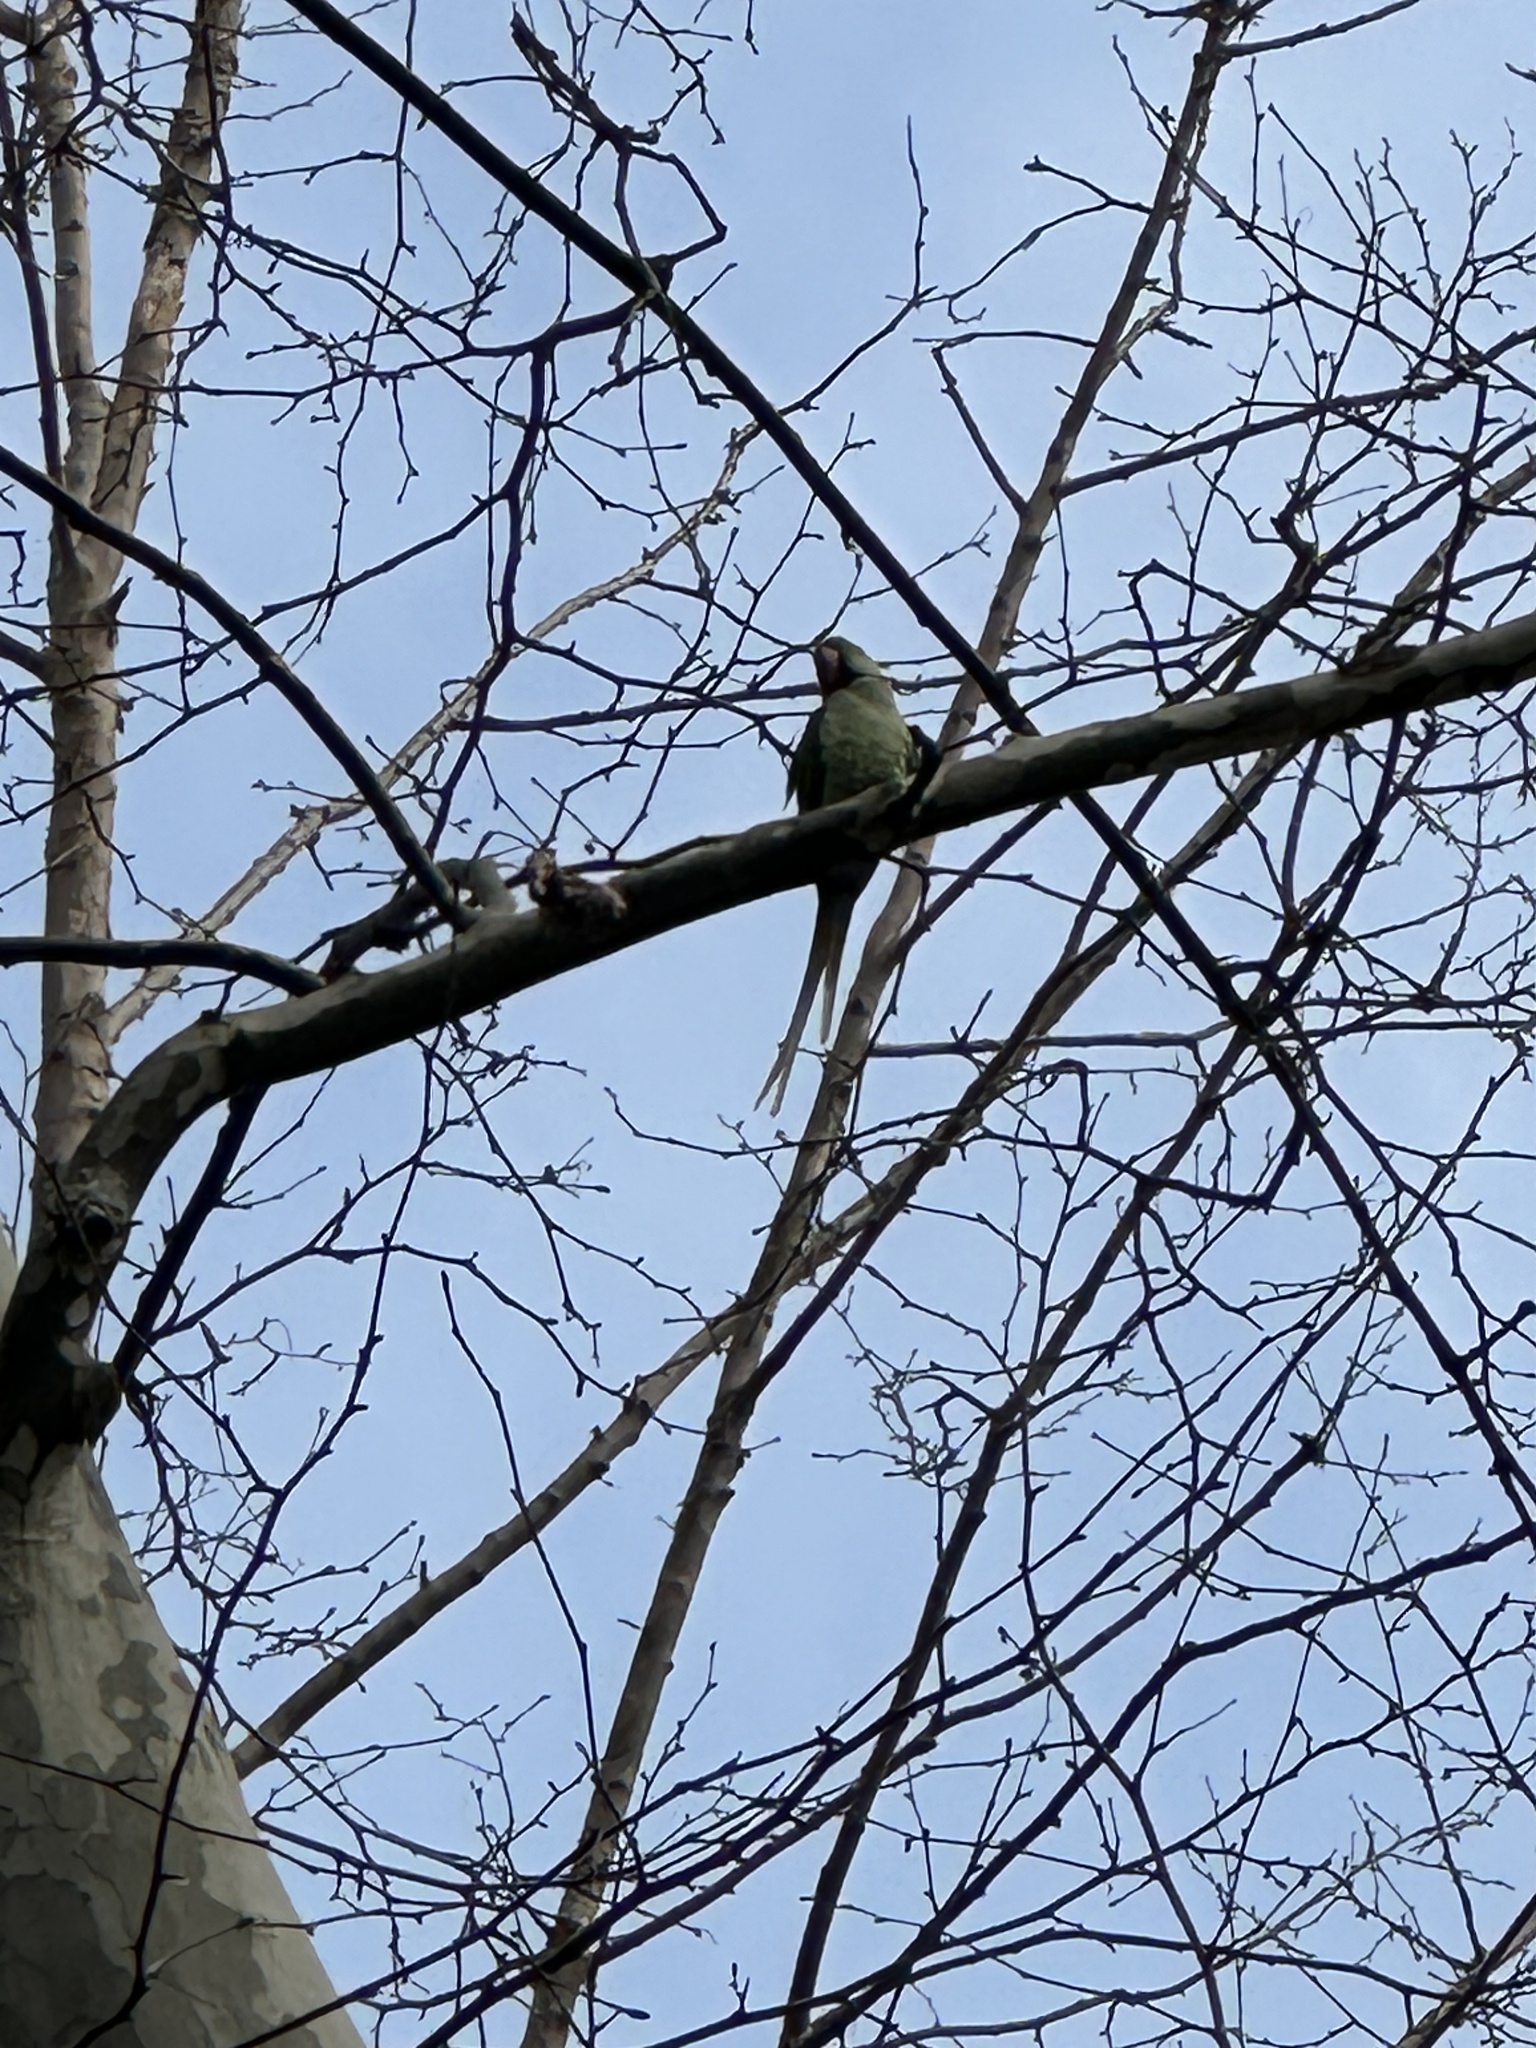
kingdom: Animalia
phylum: Chordata
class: Aves
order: Psittaciformes
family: Psittacidae
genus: Psittacula
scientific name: Psittacula krameri
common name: Rose-ringed parakeet
